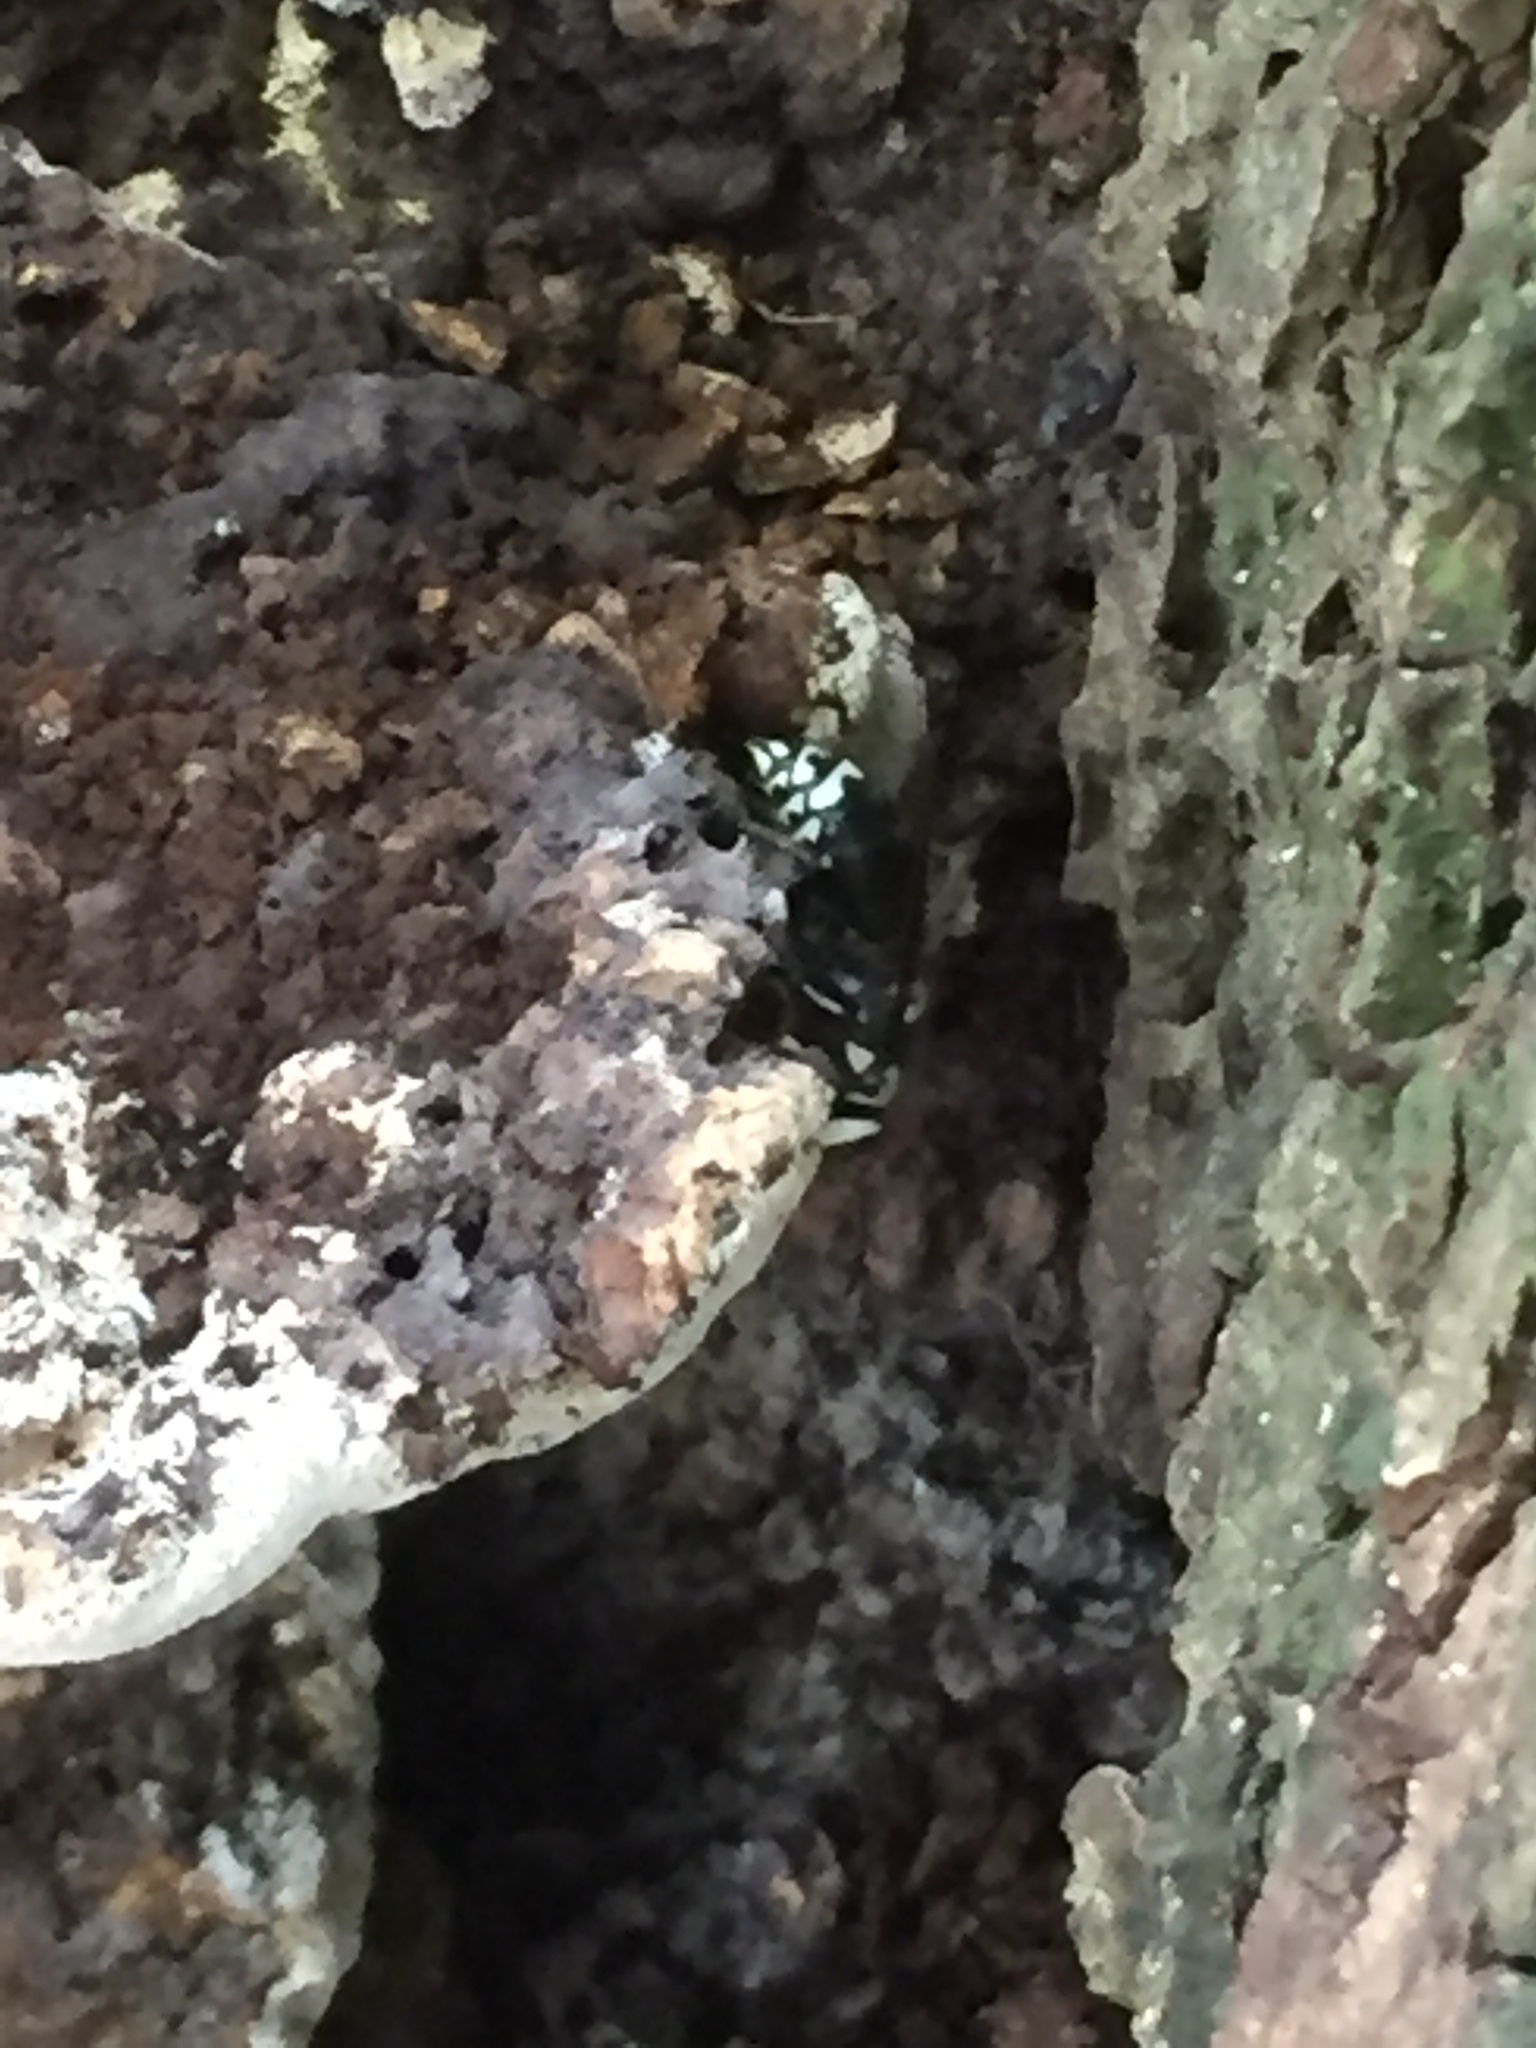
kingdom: Animalia
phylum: Arthropoda
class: Insecta
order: Hymenoptera
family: Vespidae
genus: Dolichovespula
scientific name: Dolichovespula maculata
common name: Bald-faced hornet
